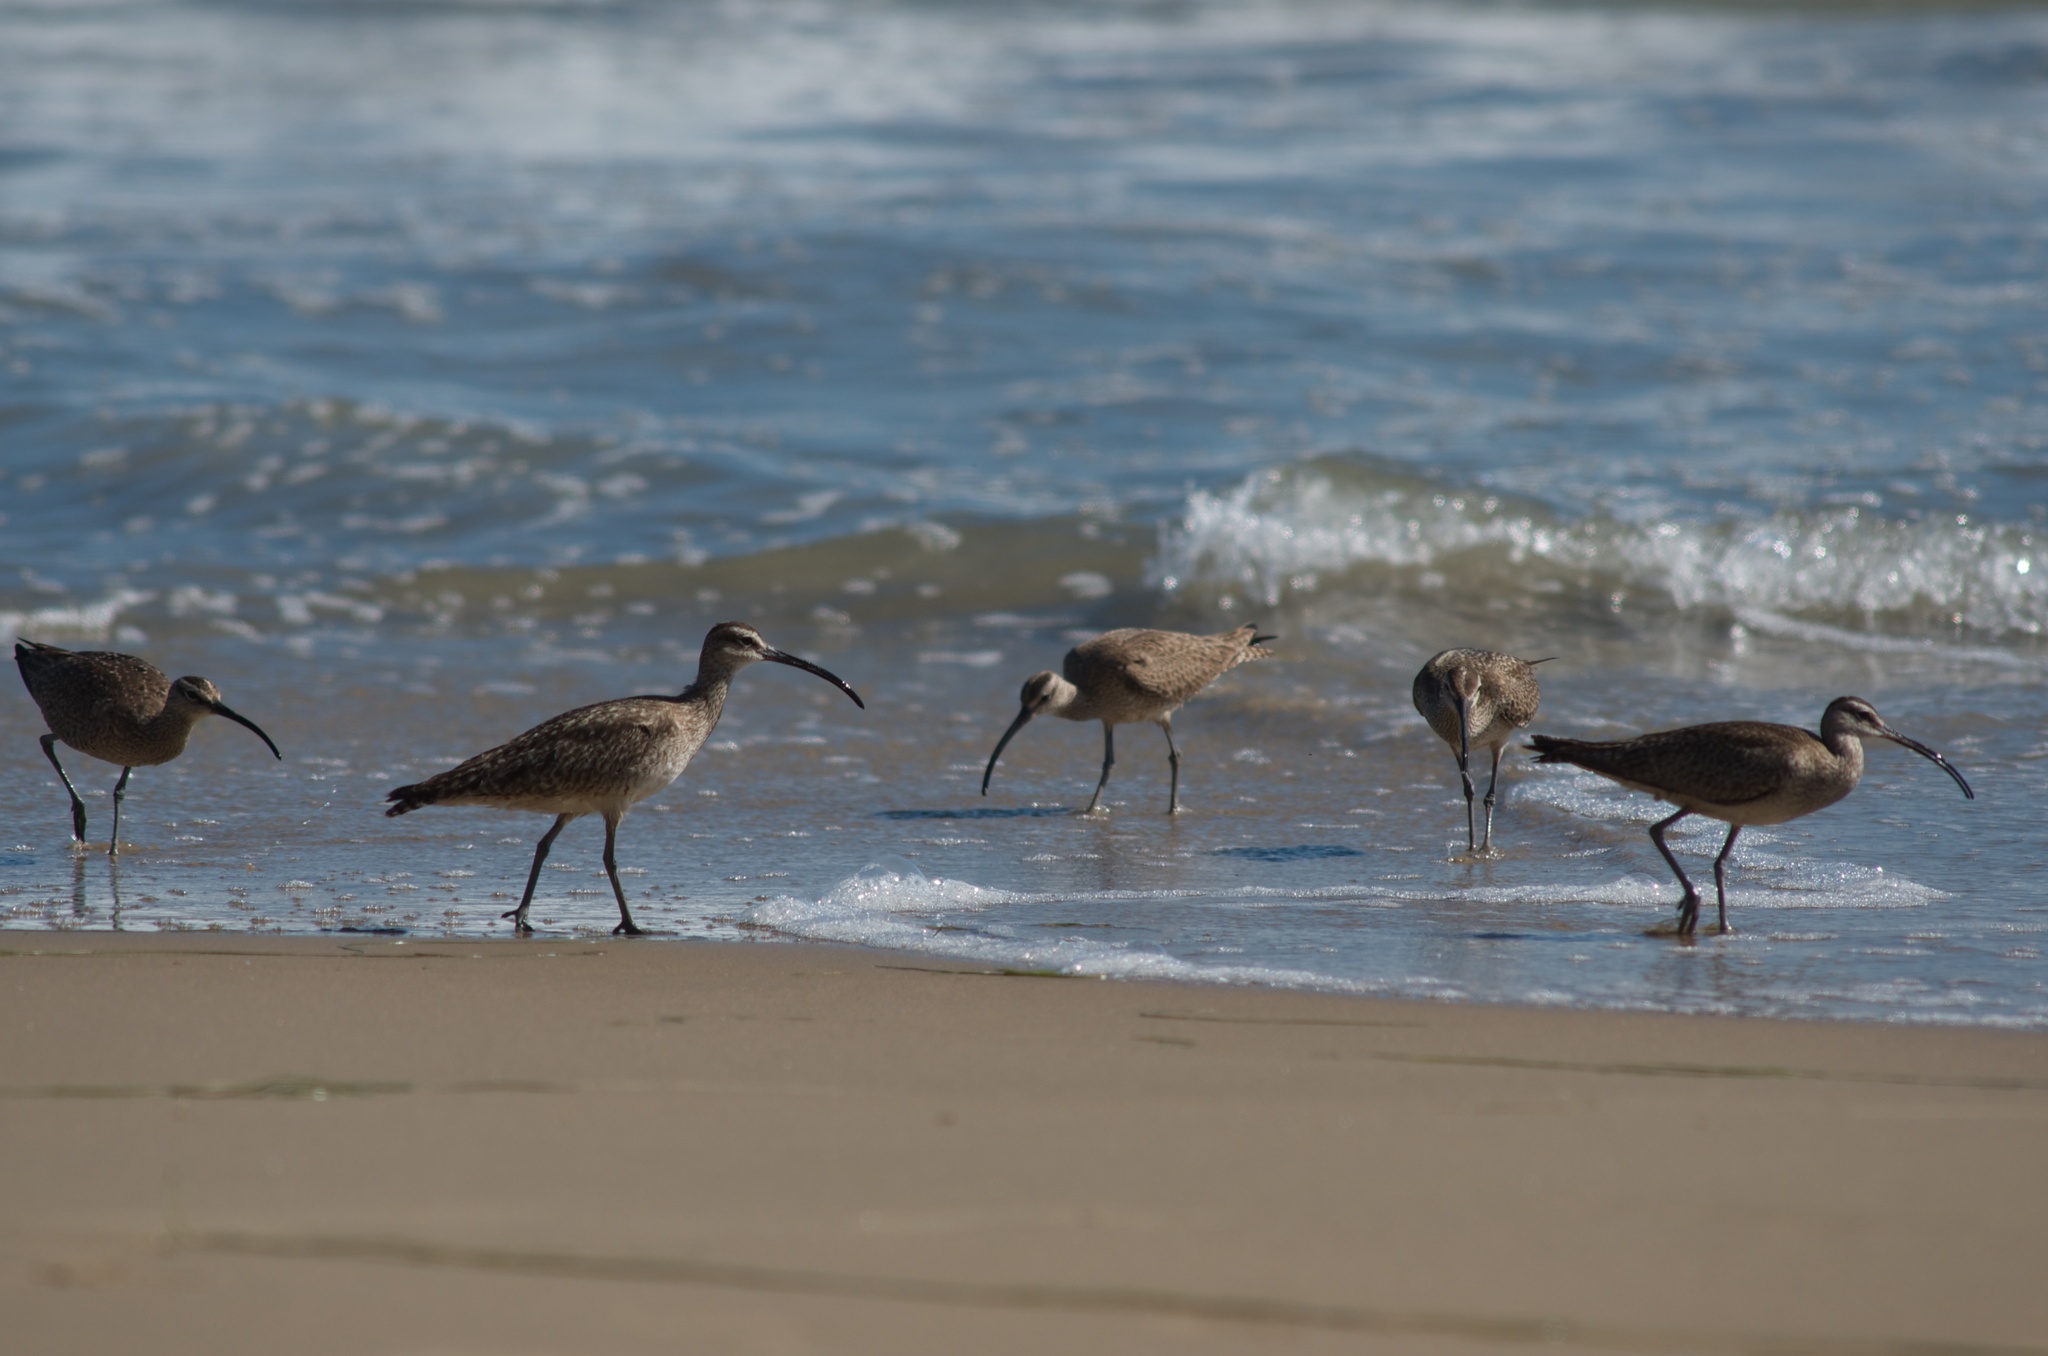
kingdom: Animalia
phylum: Chordata
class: Aves
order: Charadriiformes
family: Scolopacidae
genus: Numenius
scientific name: Numenius phaeopus
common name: Whimbrel
